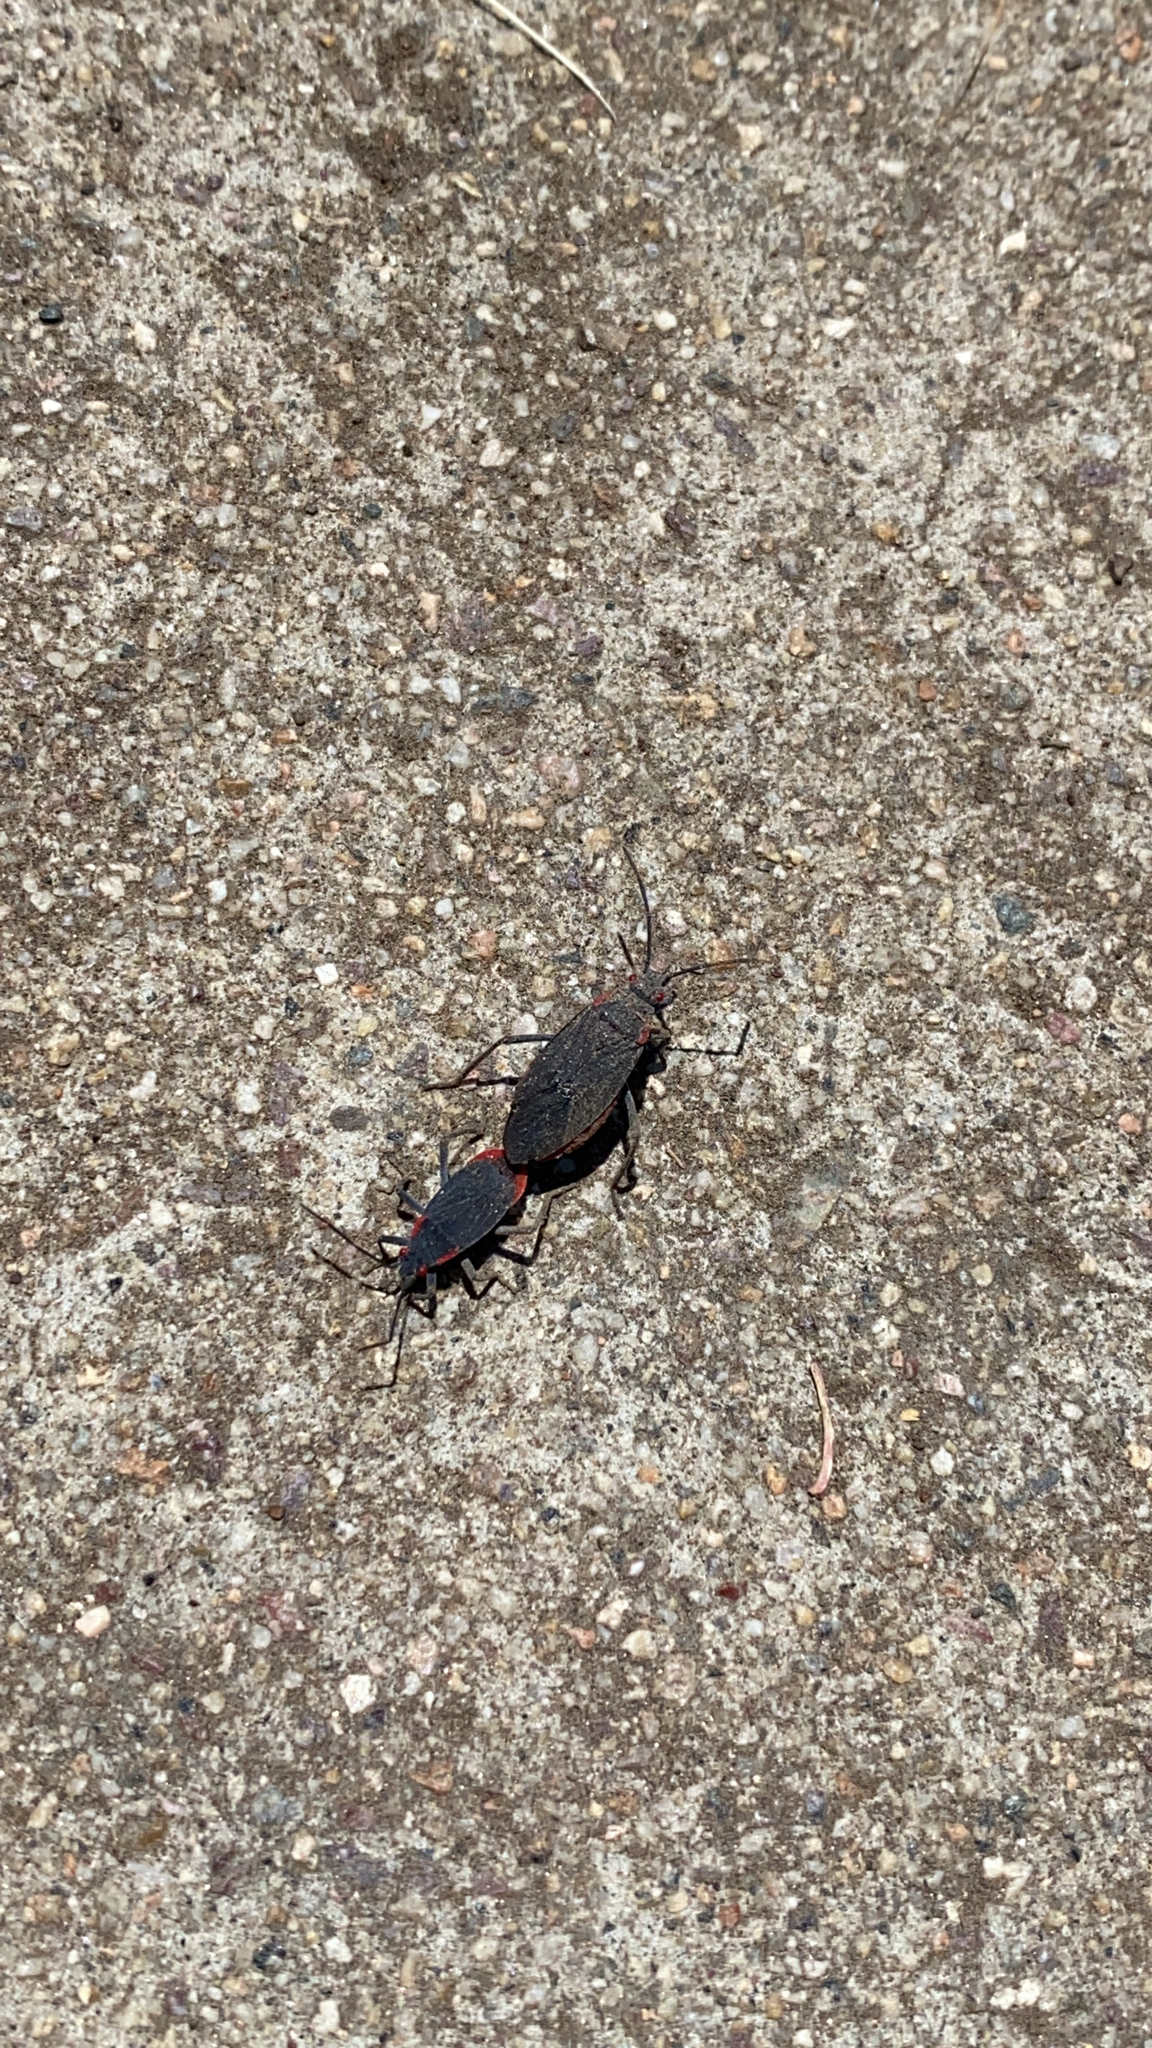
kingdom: Animalia
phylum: Arthropoda
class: Insecta
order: Hemiptera
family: Rhopalidae
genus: Jadera
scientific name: Jadera haematoloma
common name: Red-shouldered bug
